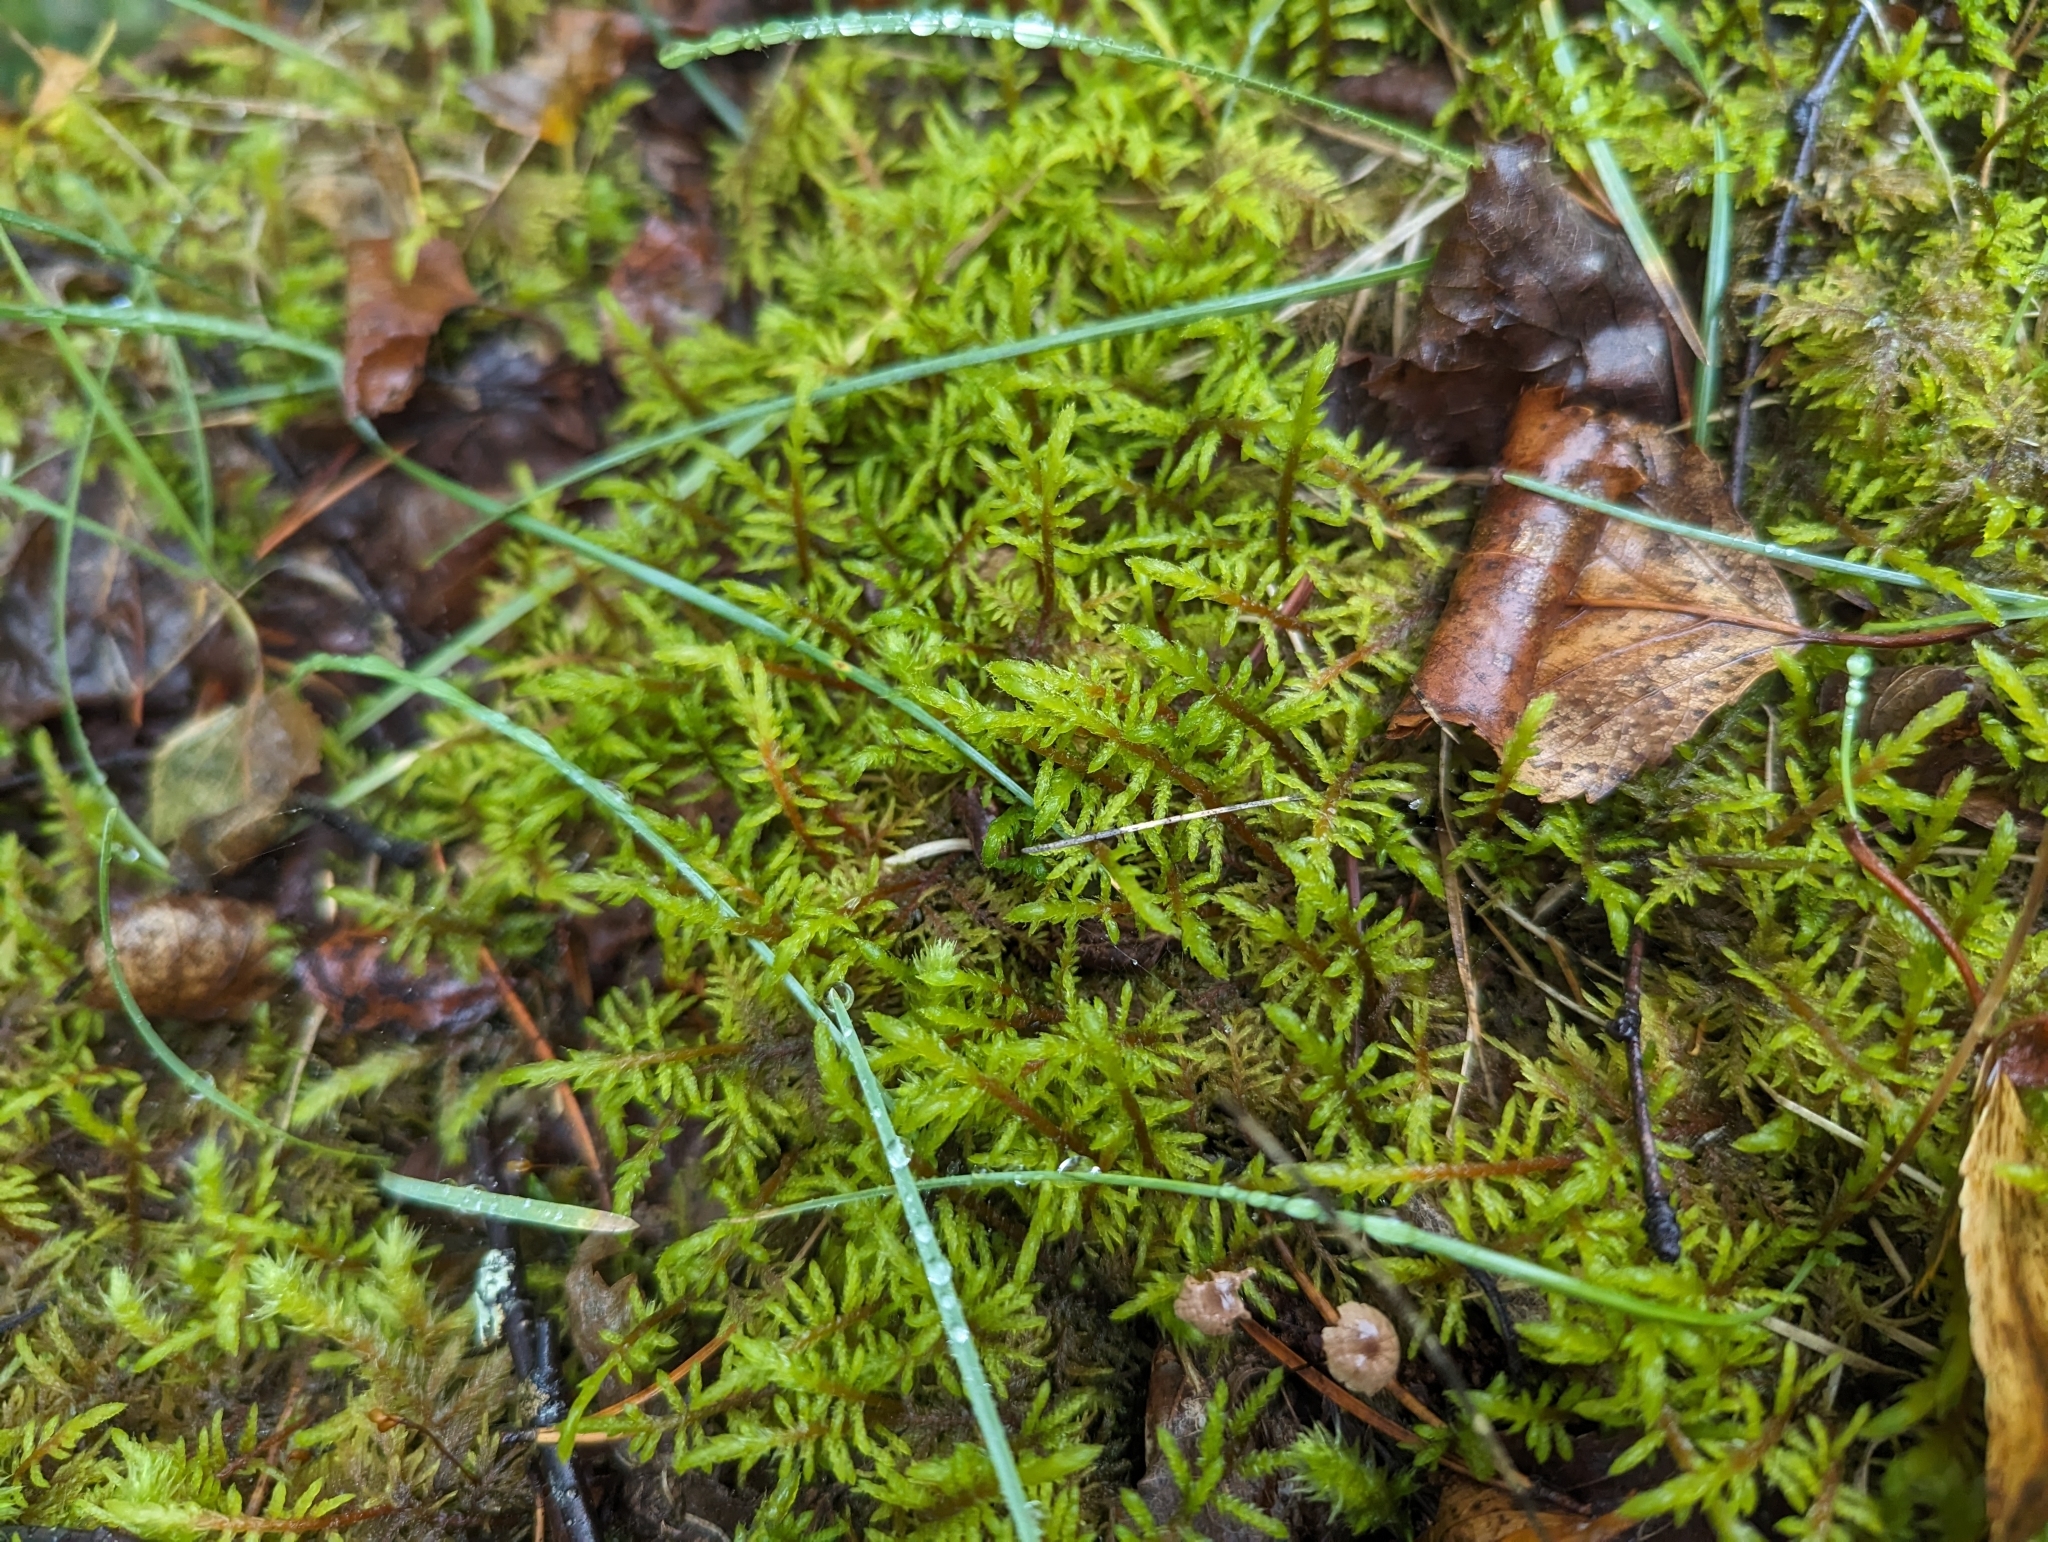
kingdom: Plantae
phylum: Bryophyta
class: Bryopsida
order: Hypnales
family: Hylocomiaceae
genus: Hylocomium
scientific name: Hylocomium splendens
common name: Stairstep moss
